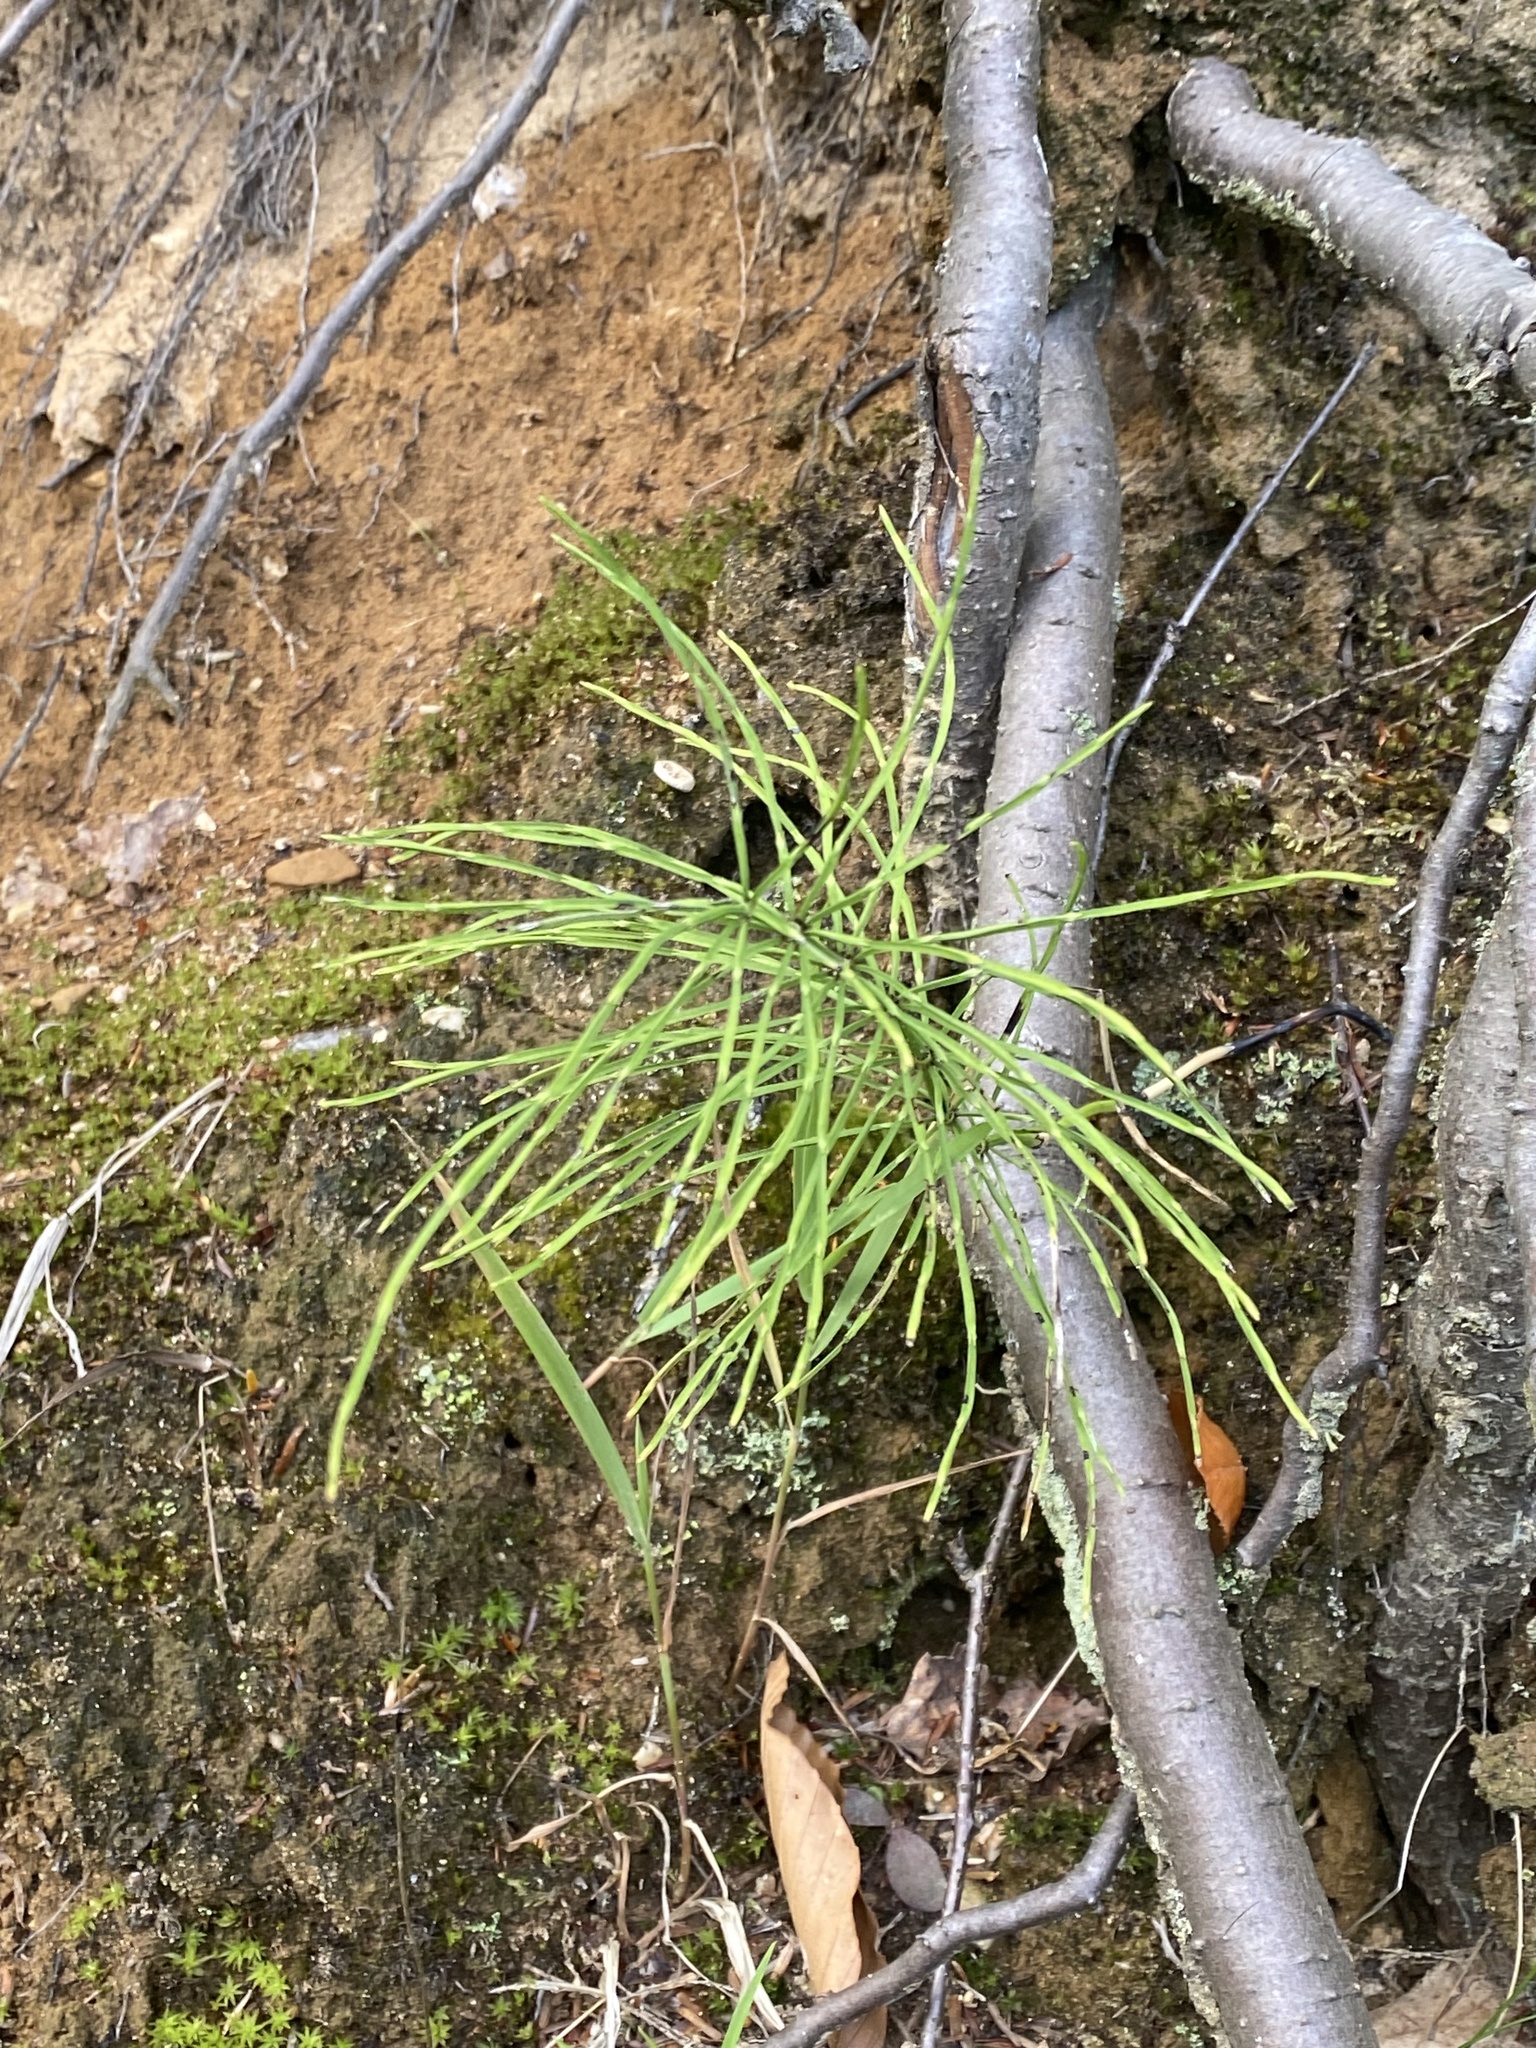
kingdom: Plantae
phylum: Tracheophyta
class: Polypodiopsida
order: Equisetales
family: Equisetaceae
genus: Equisetum
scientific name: Equisetum arvense
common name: Field horsetail
